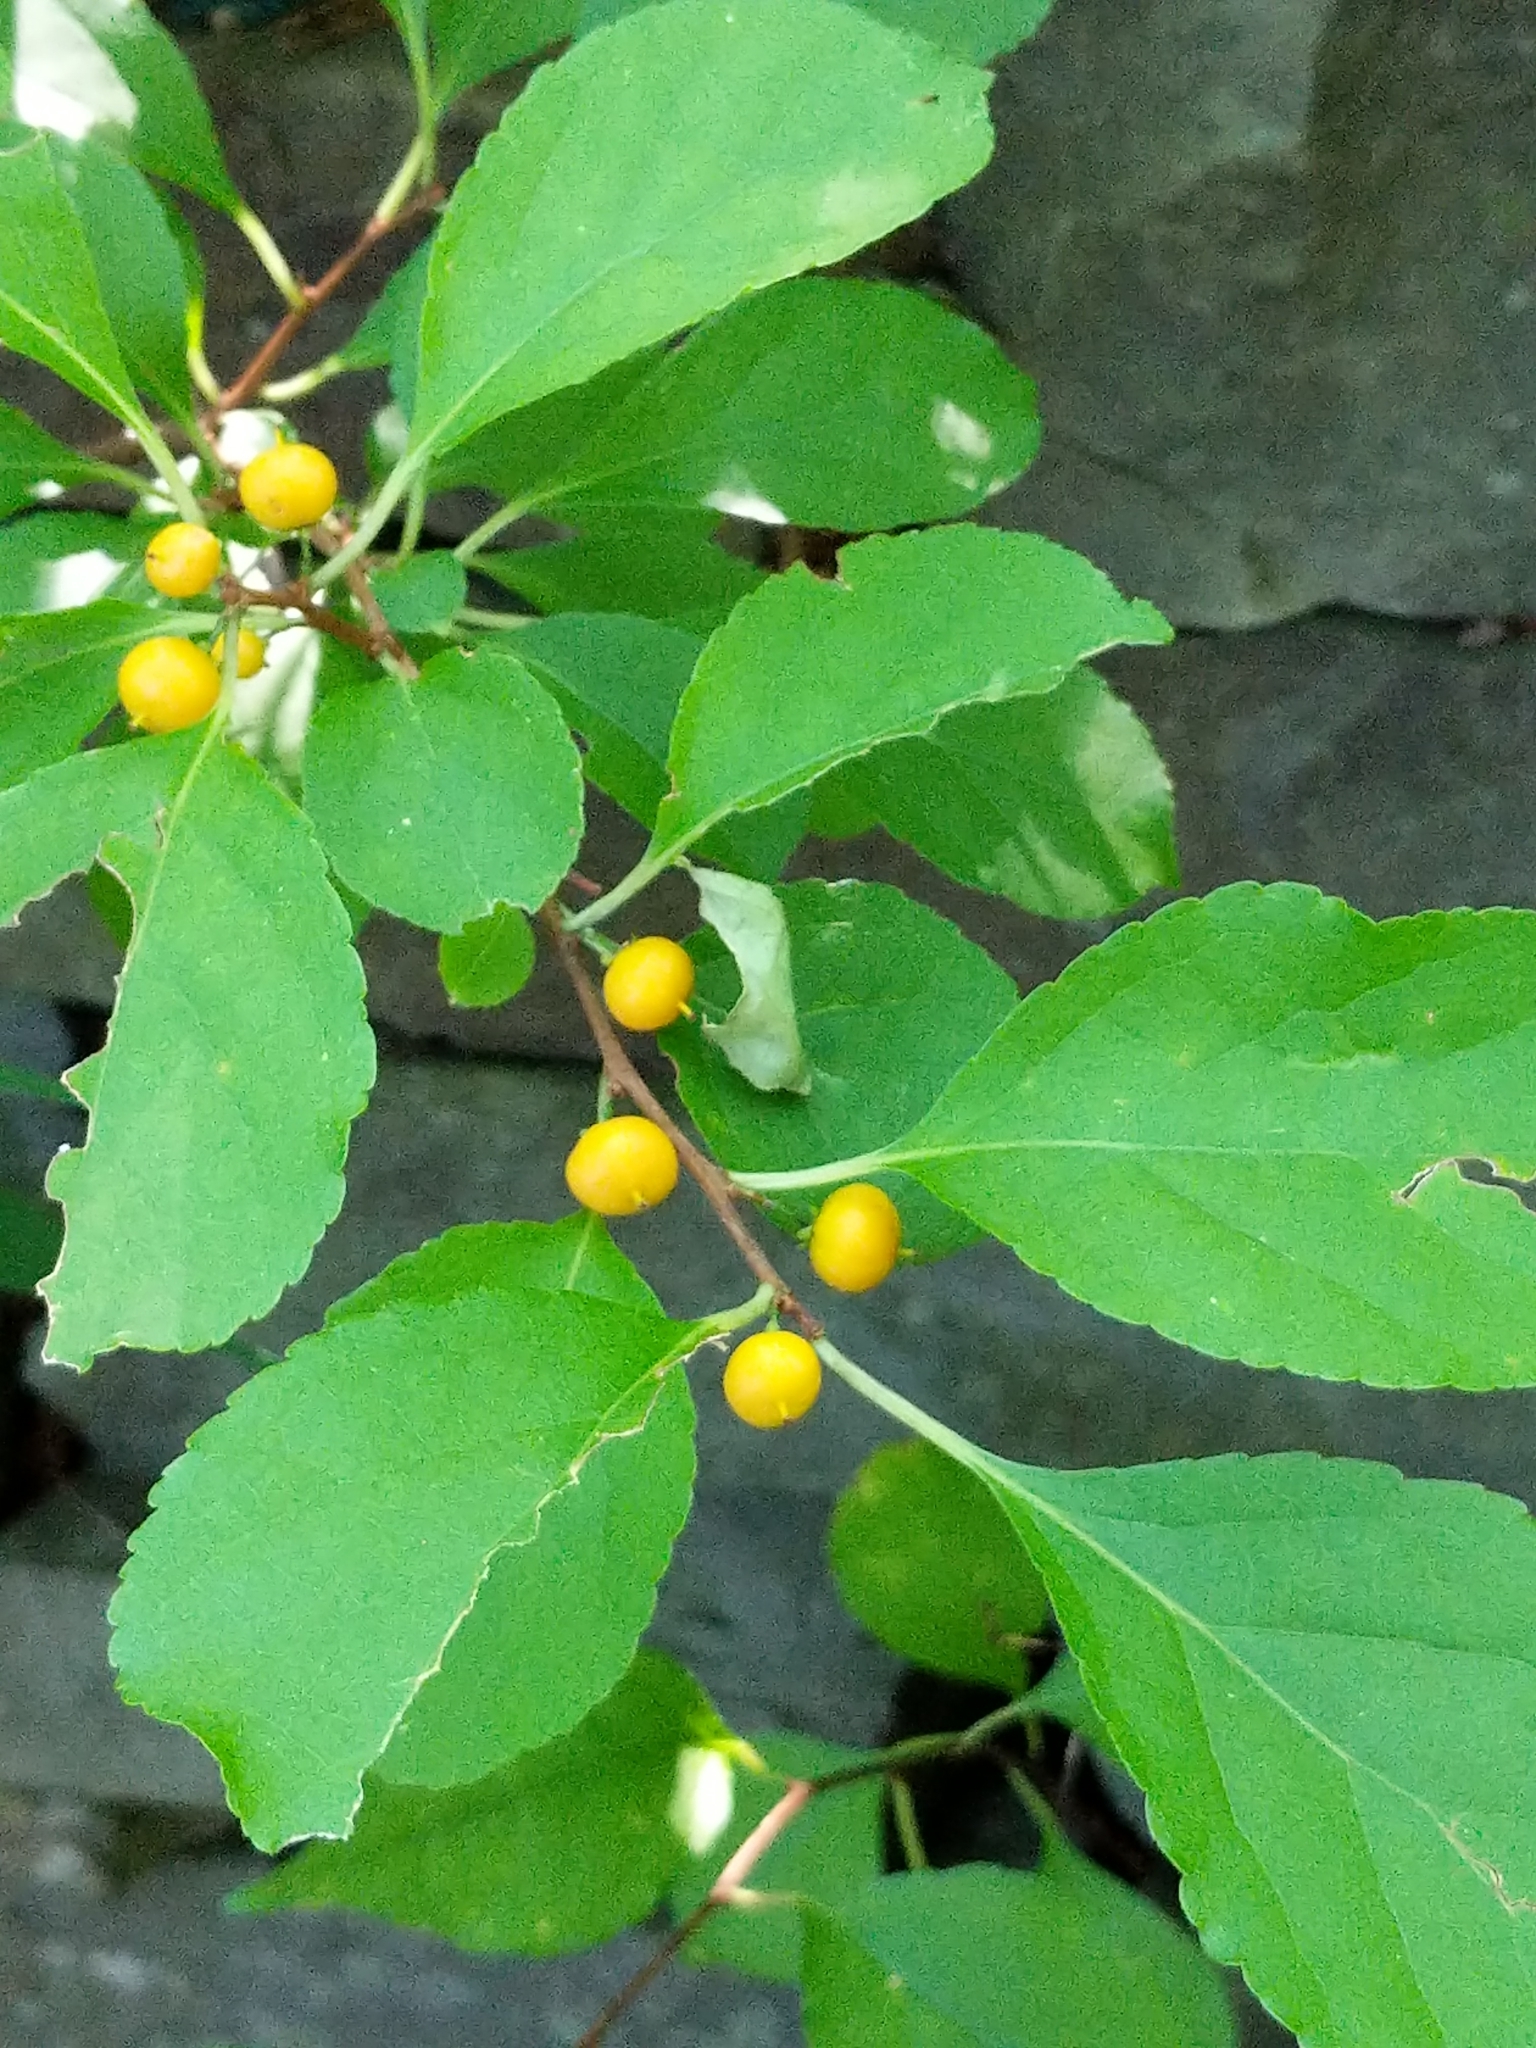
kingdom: Plantae
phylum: Tracheophyta
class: Magnoliopsida
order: Celastrales
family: Celastraceae
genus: Celastrus
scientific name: Celastrus orbiculatus
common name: Oriental bittersweet
